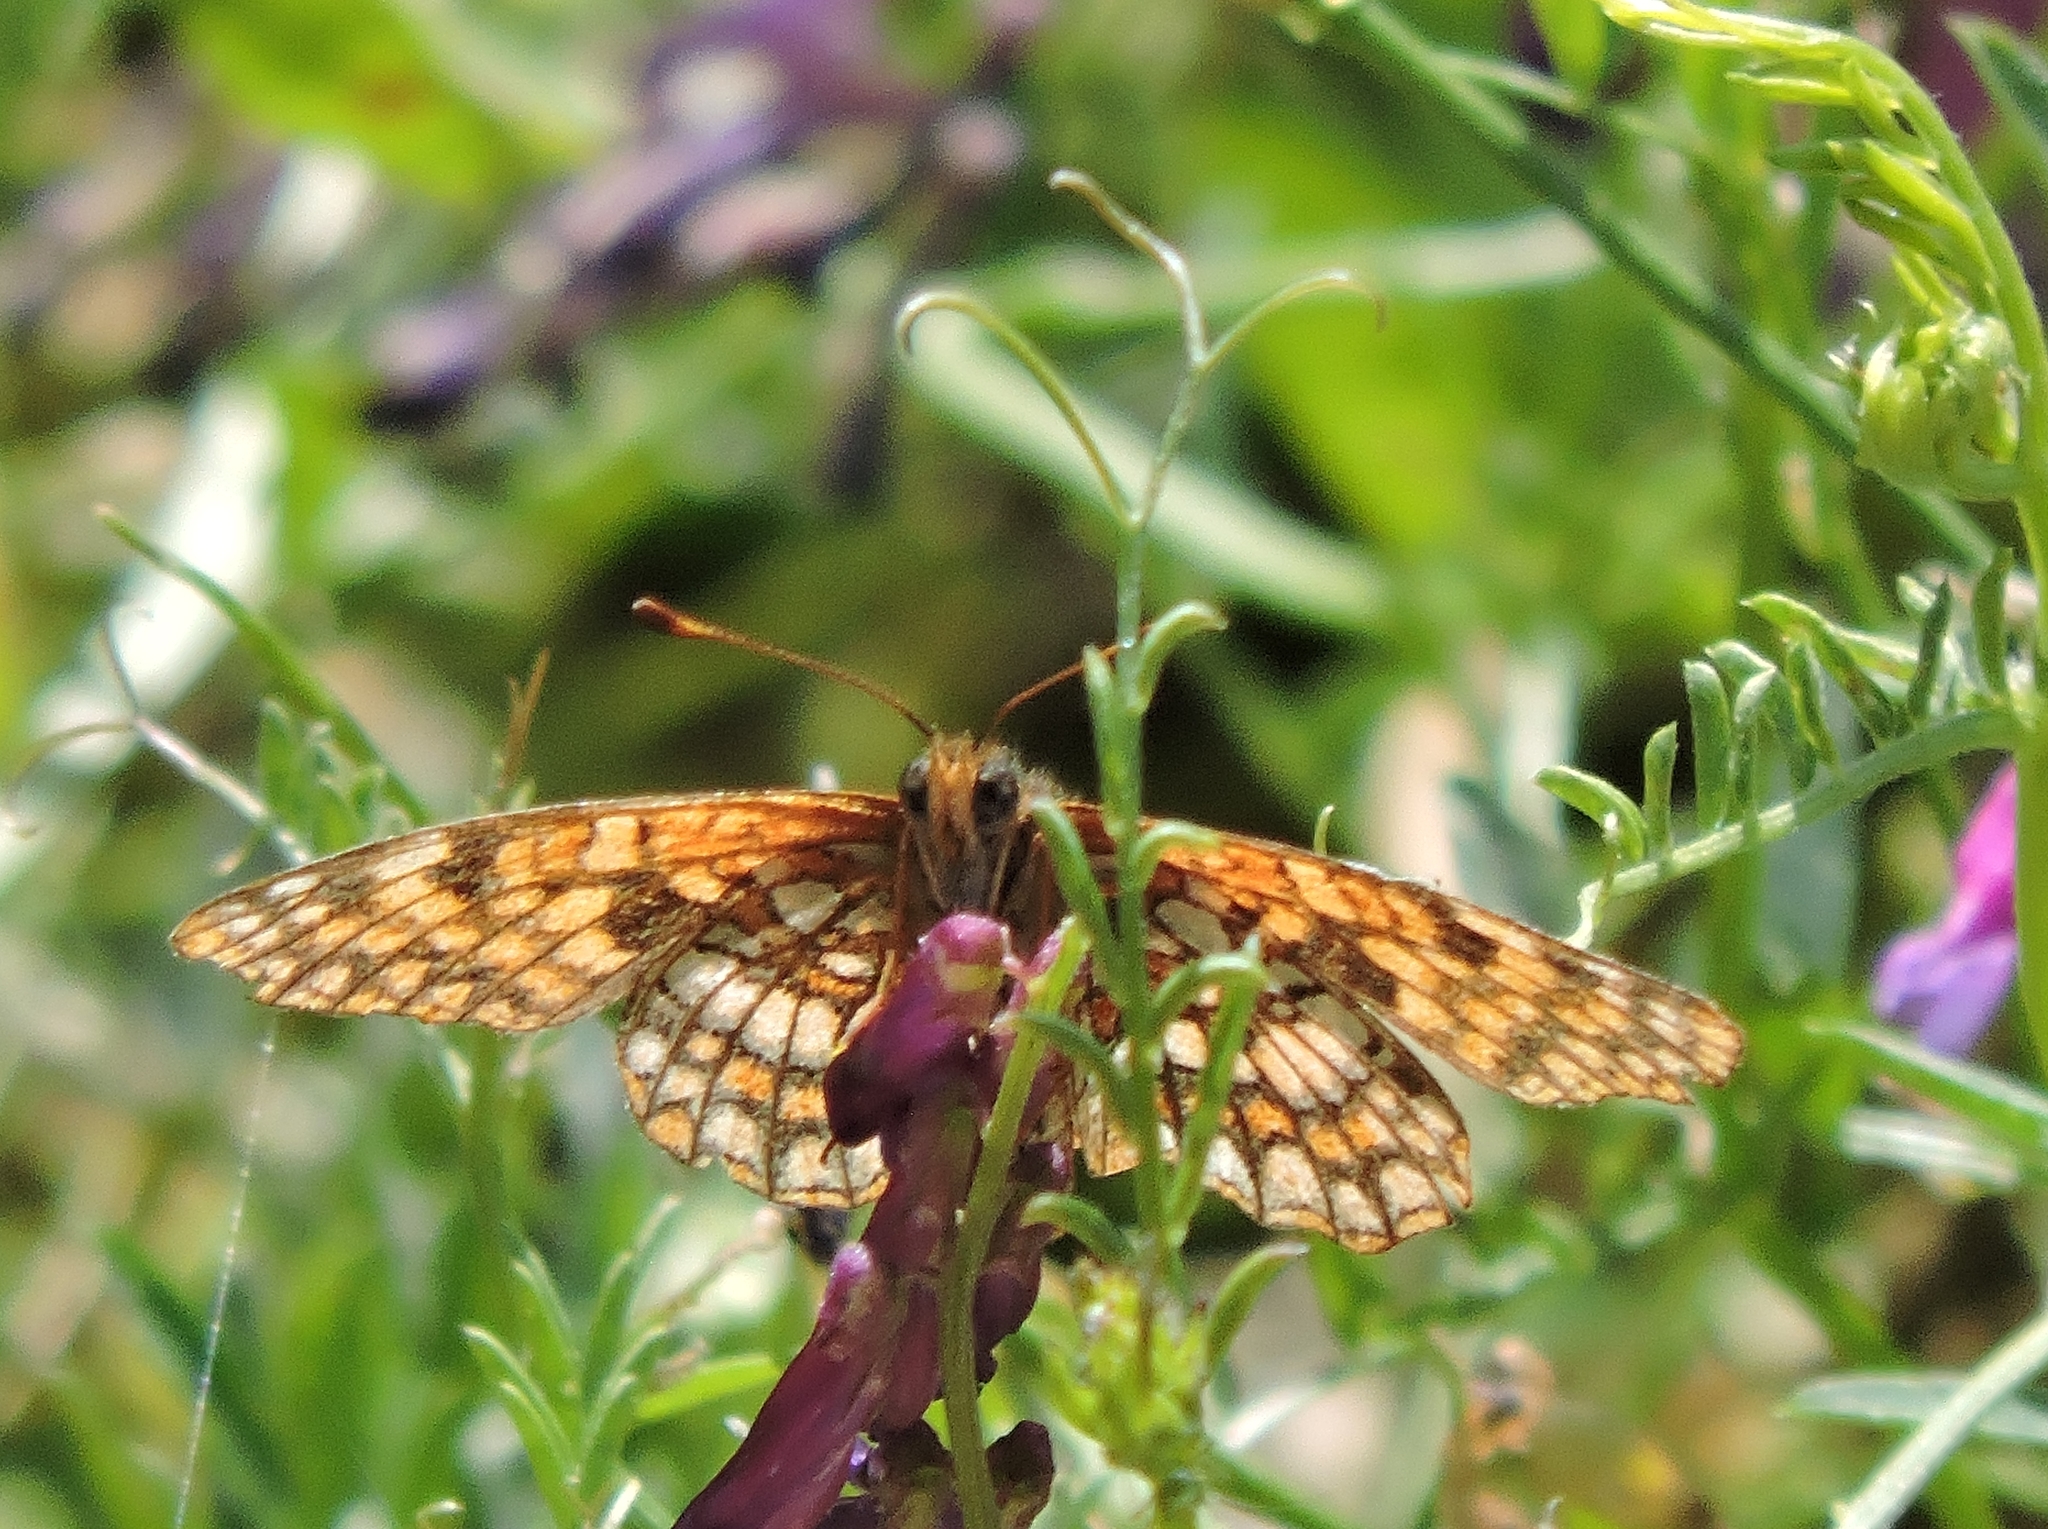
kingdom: Animalia
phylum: Arthropoda
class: Insecta
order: Lepidoptera
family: Nymphalidae
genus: Chlosyne
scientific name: Chlosyne palla
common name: Northern checkerspot
